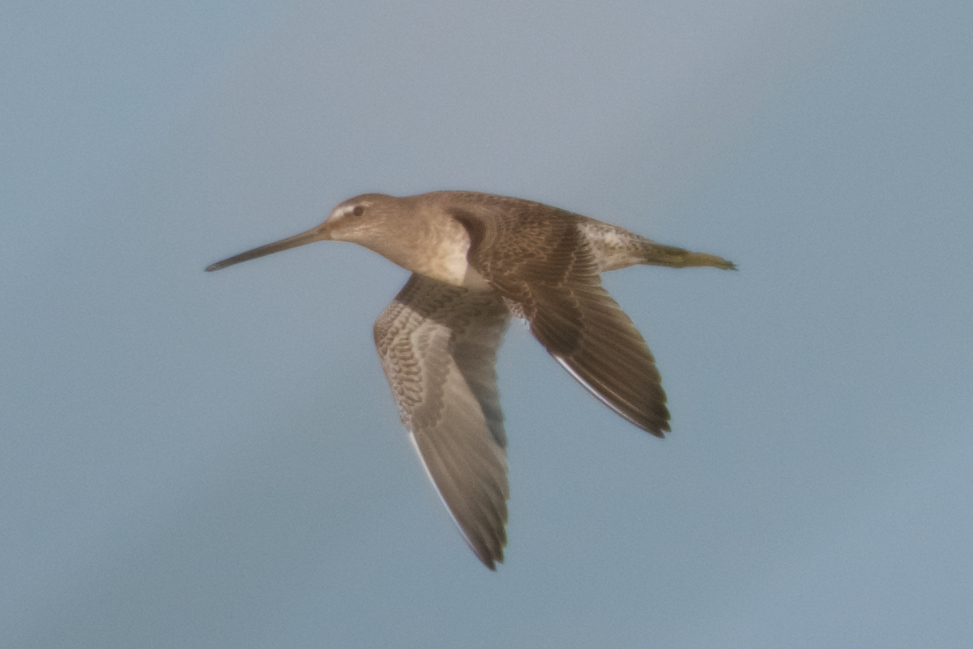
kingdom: Animalia
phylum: Chordata
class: Aves
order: Charadriiformes
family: Scolopacidae
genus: Limnodromus
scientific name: Limnodromus scolopaceus
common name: Long-billed dowitcher
